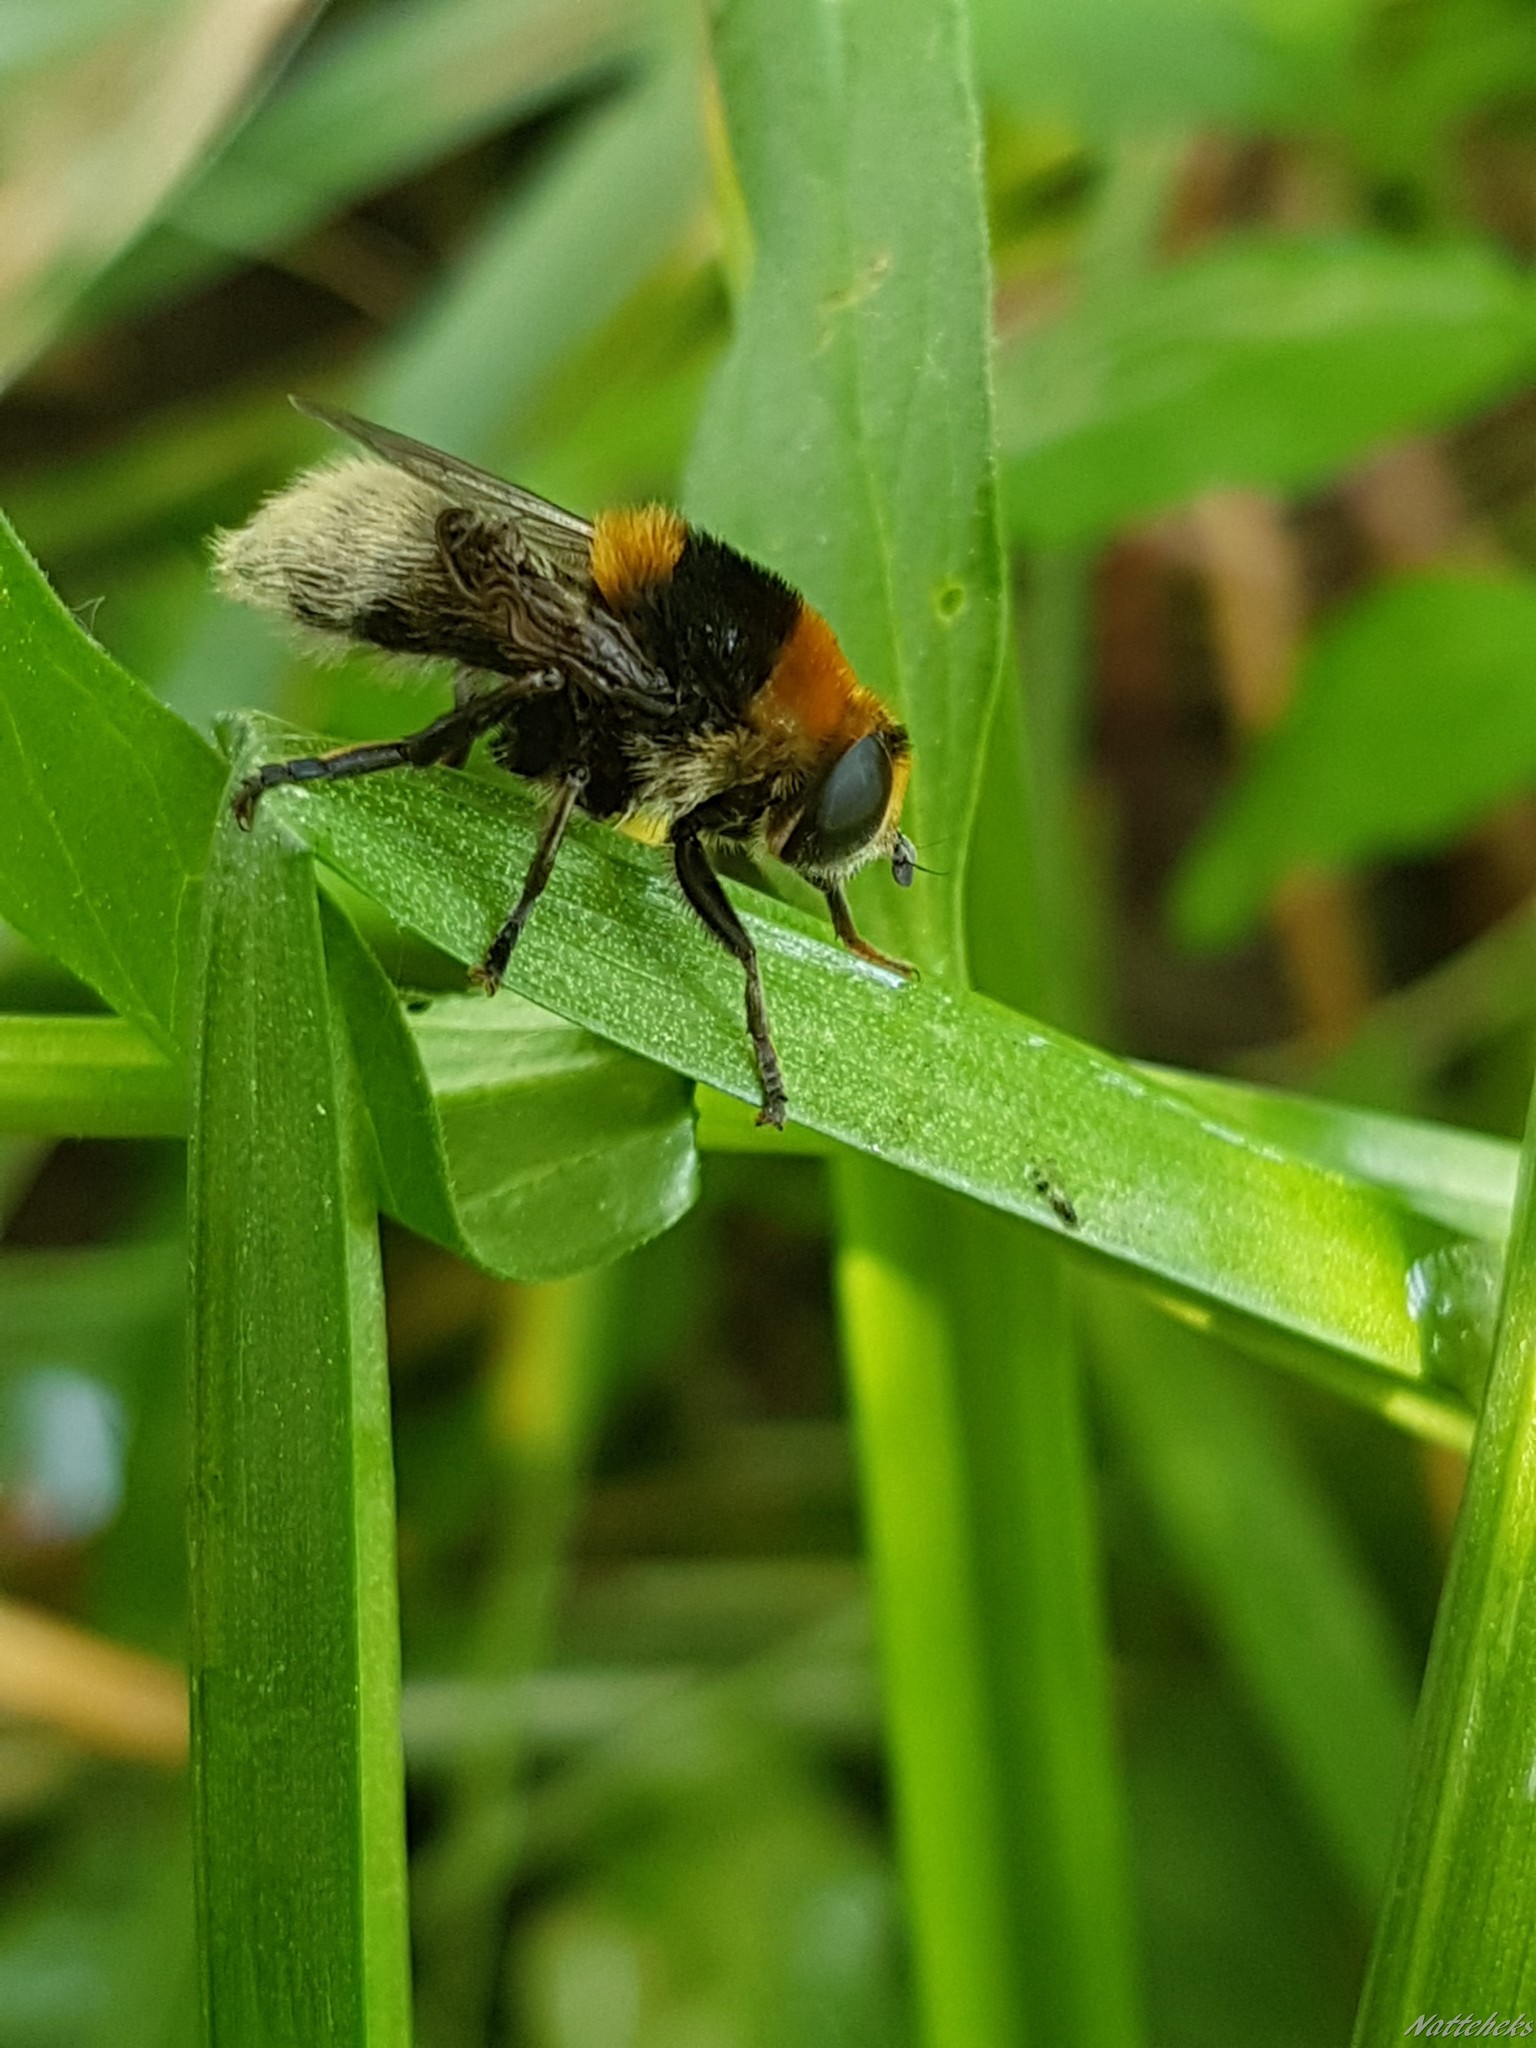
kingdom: Animalia
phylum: Arthropoda
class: Insecta
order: Diptera
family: Syrphidae
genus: Merodon
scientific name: Merodon equestris
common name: Greater bulb-fly
